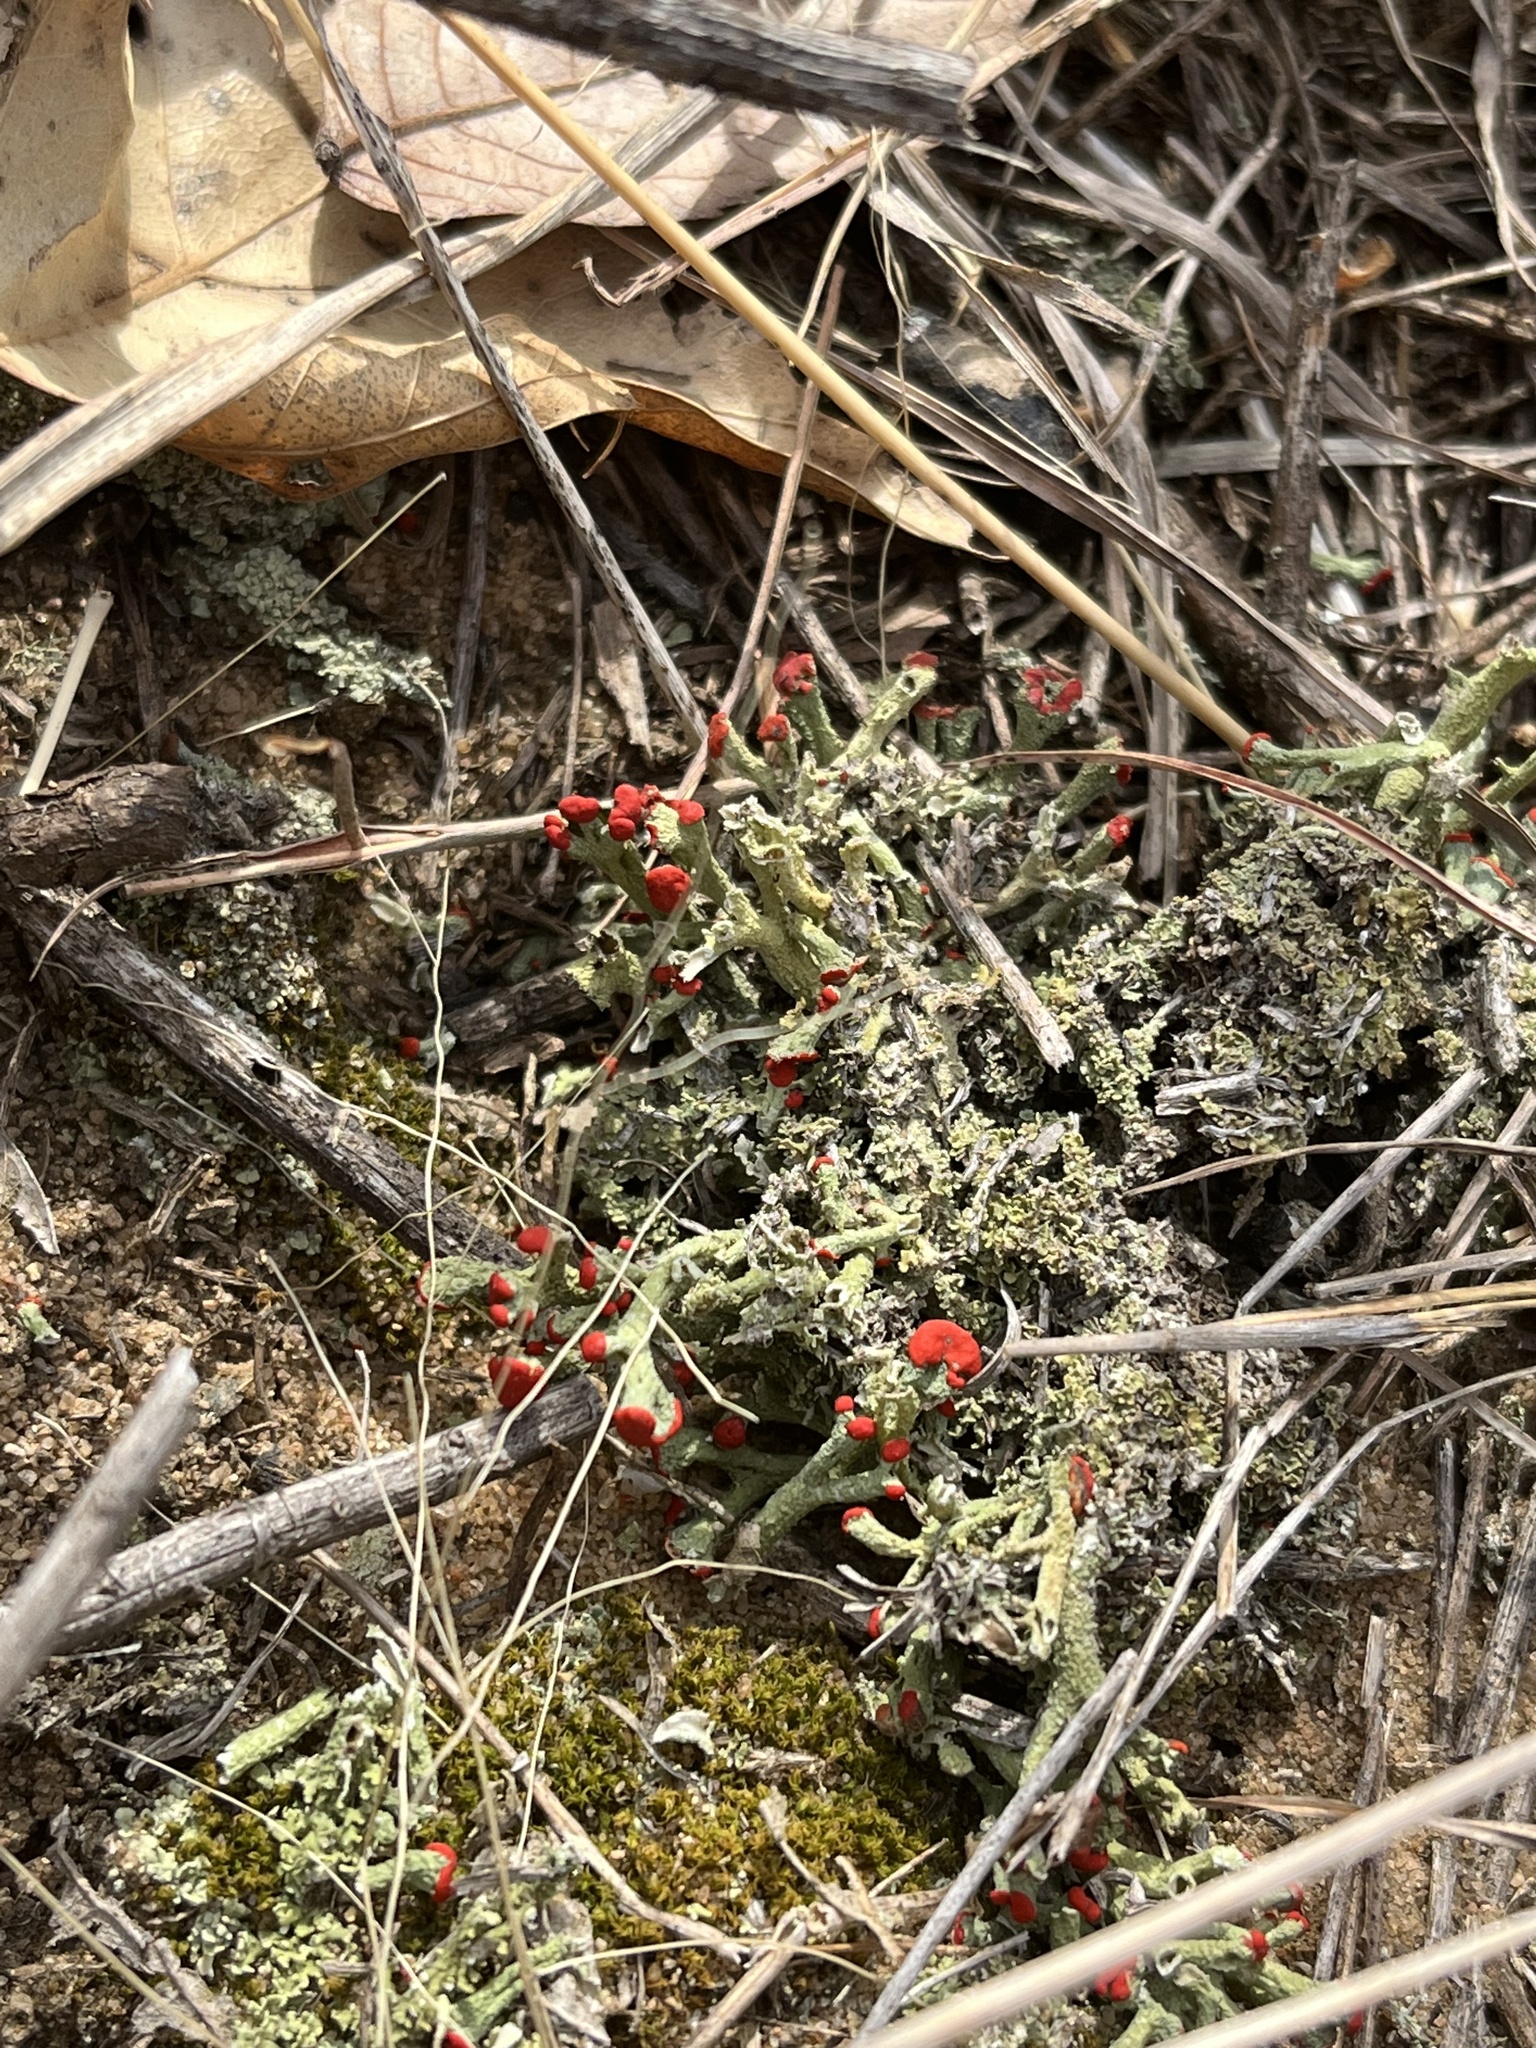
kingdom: Fungi
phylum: Ascomycota
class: Lecanoromycetes
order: Lecanorales
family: Cladoniaceae
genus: Cladonia
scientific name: Cladonia cristatella
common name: British soldier lichen
